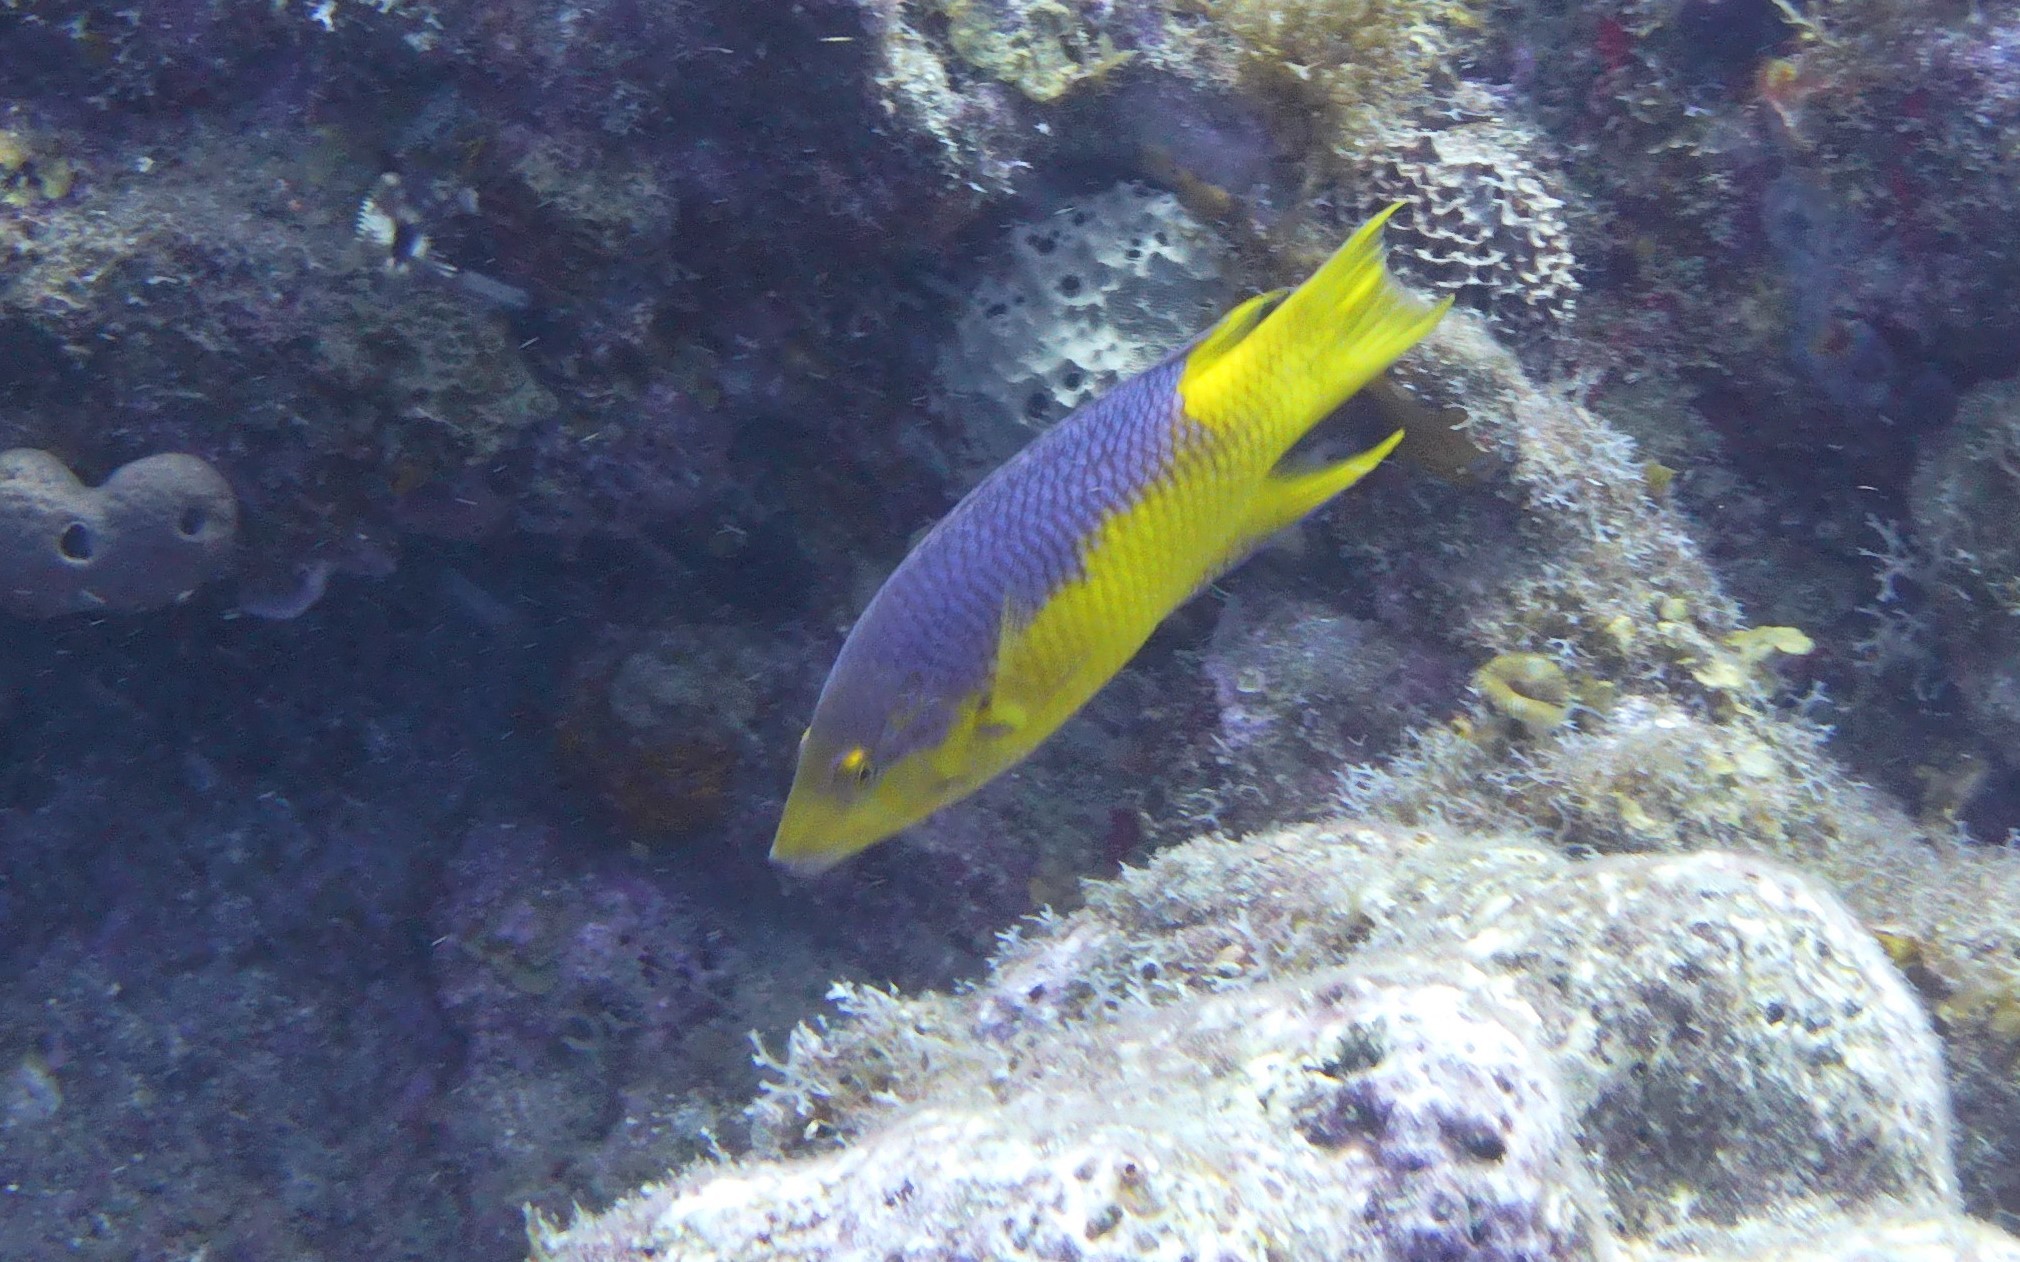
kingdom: Animalia
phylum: Chordata
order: Perciformes
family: Labridae
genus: Bodianus
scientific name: Bodianus rufus
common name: Spanish hogfish
